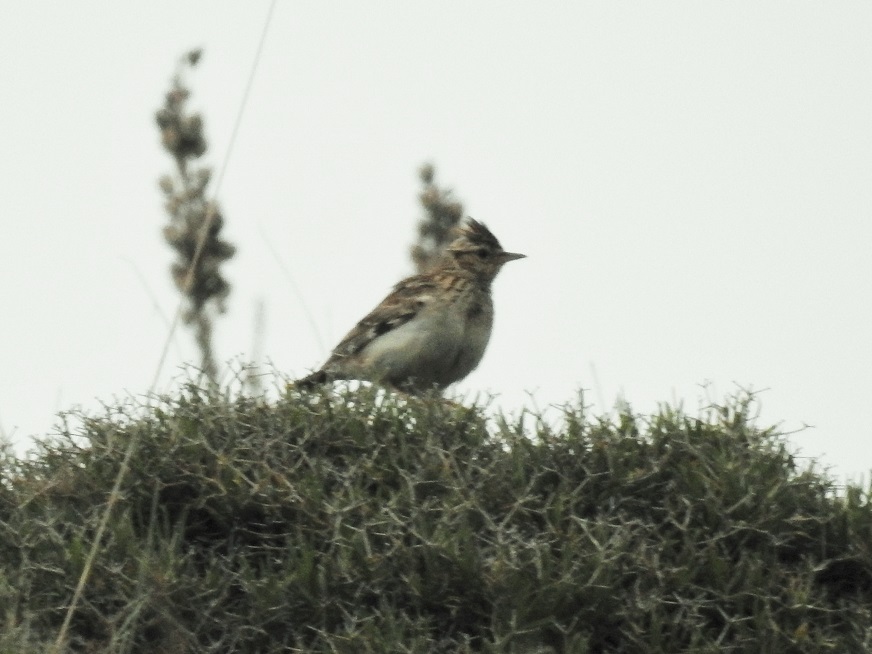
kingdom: Animalia
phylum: Chordata
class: Aves
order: Passeriformes
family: Alaudidae
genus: Lullula
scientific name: Lullula arborea
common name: Woodlark
